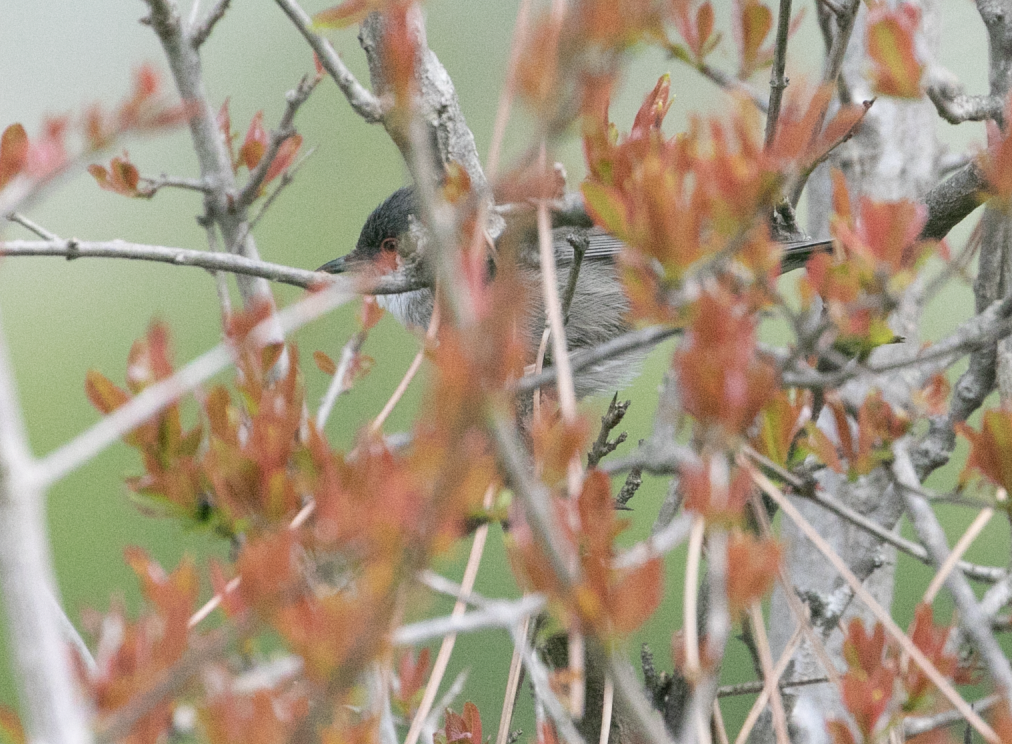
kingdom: Animalia
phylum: Chordata
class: Aves
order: Passeriformes
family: Sylviidae
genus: Curruca
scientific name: Curruca melanocephala
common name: Sardinian warbler
